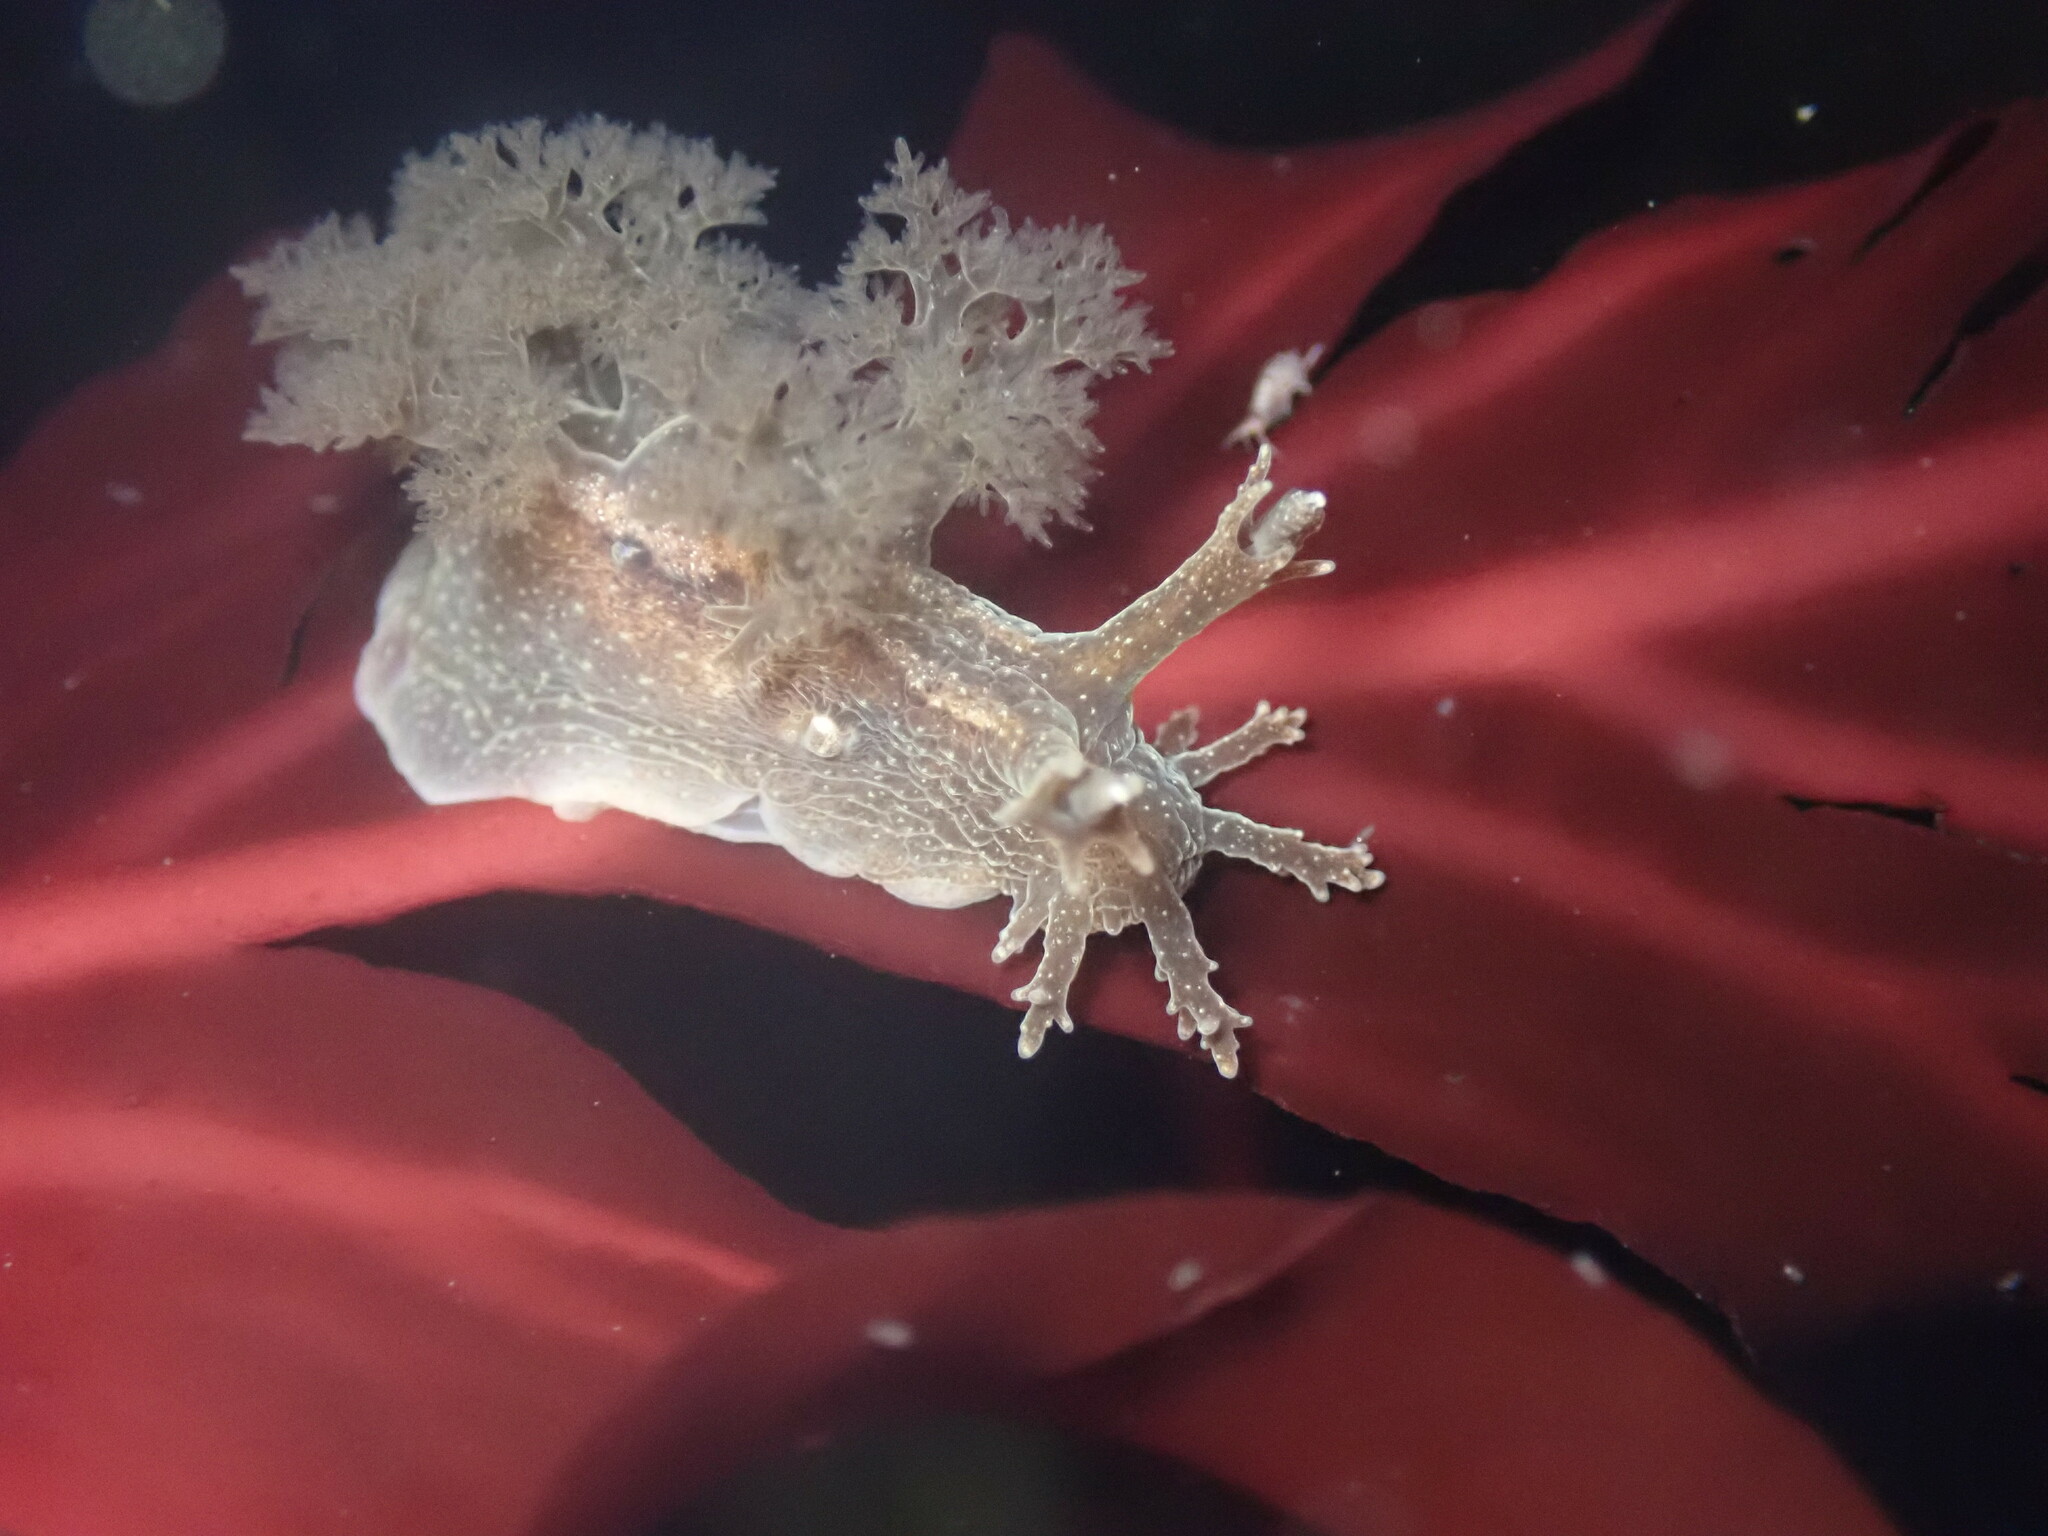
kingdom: Animalia
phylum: Mollusca
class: Gastropoda
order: Nudibranchia
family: Dendronotidae
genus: Dendronotus
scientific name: Dendronotus subramosus
